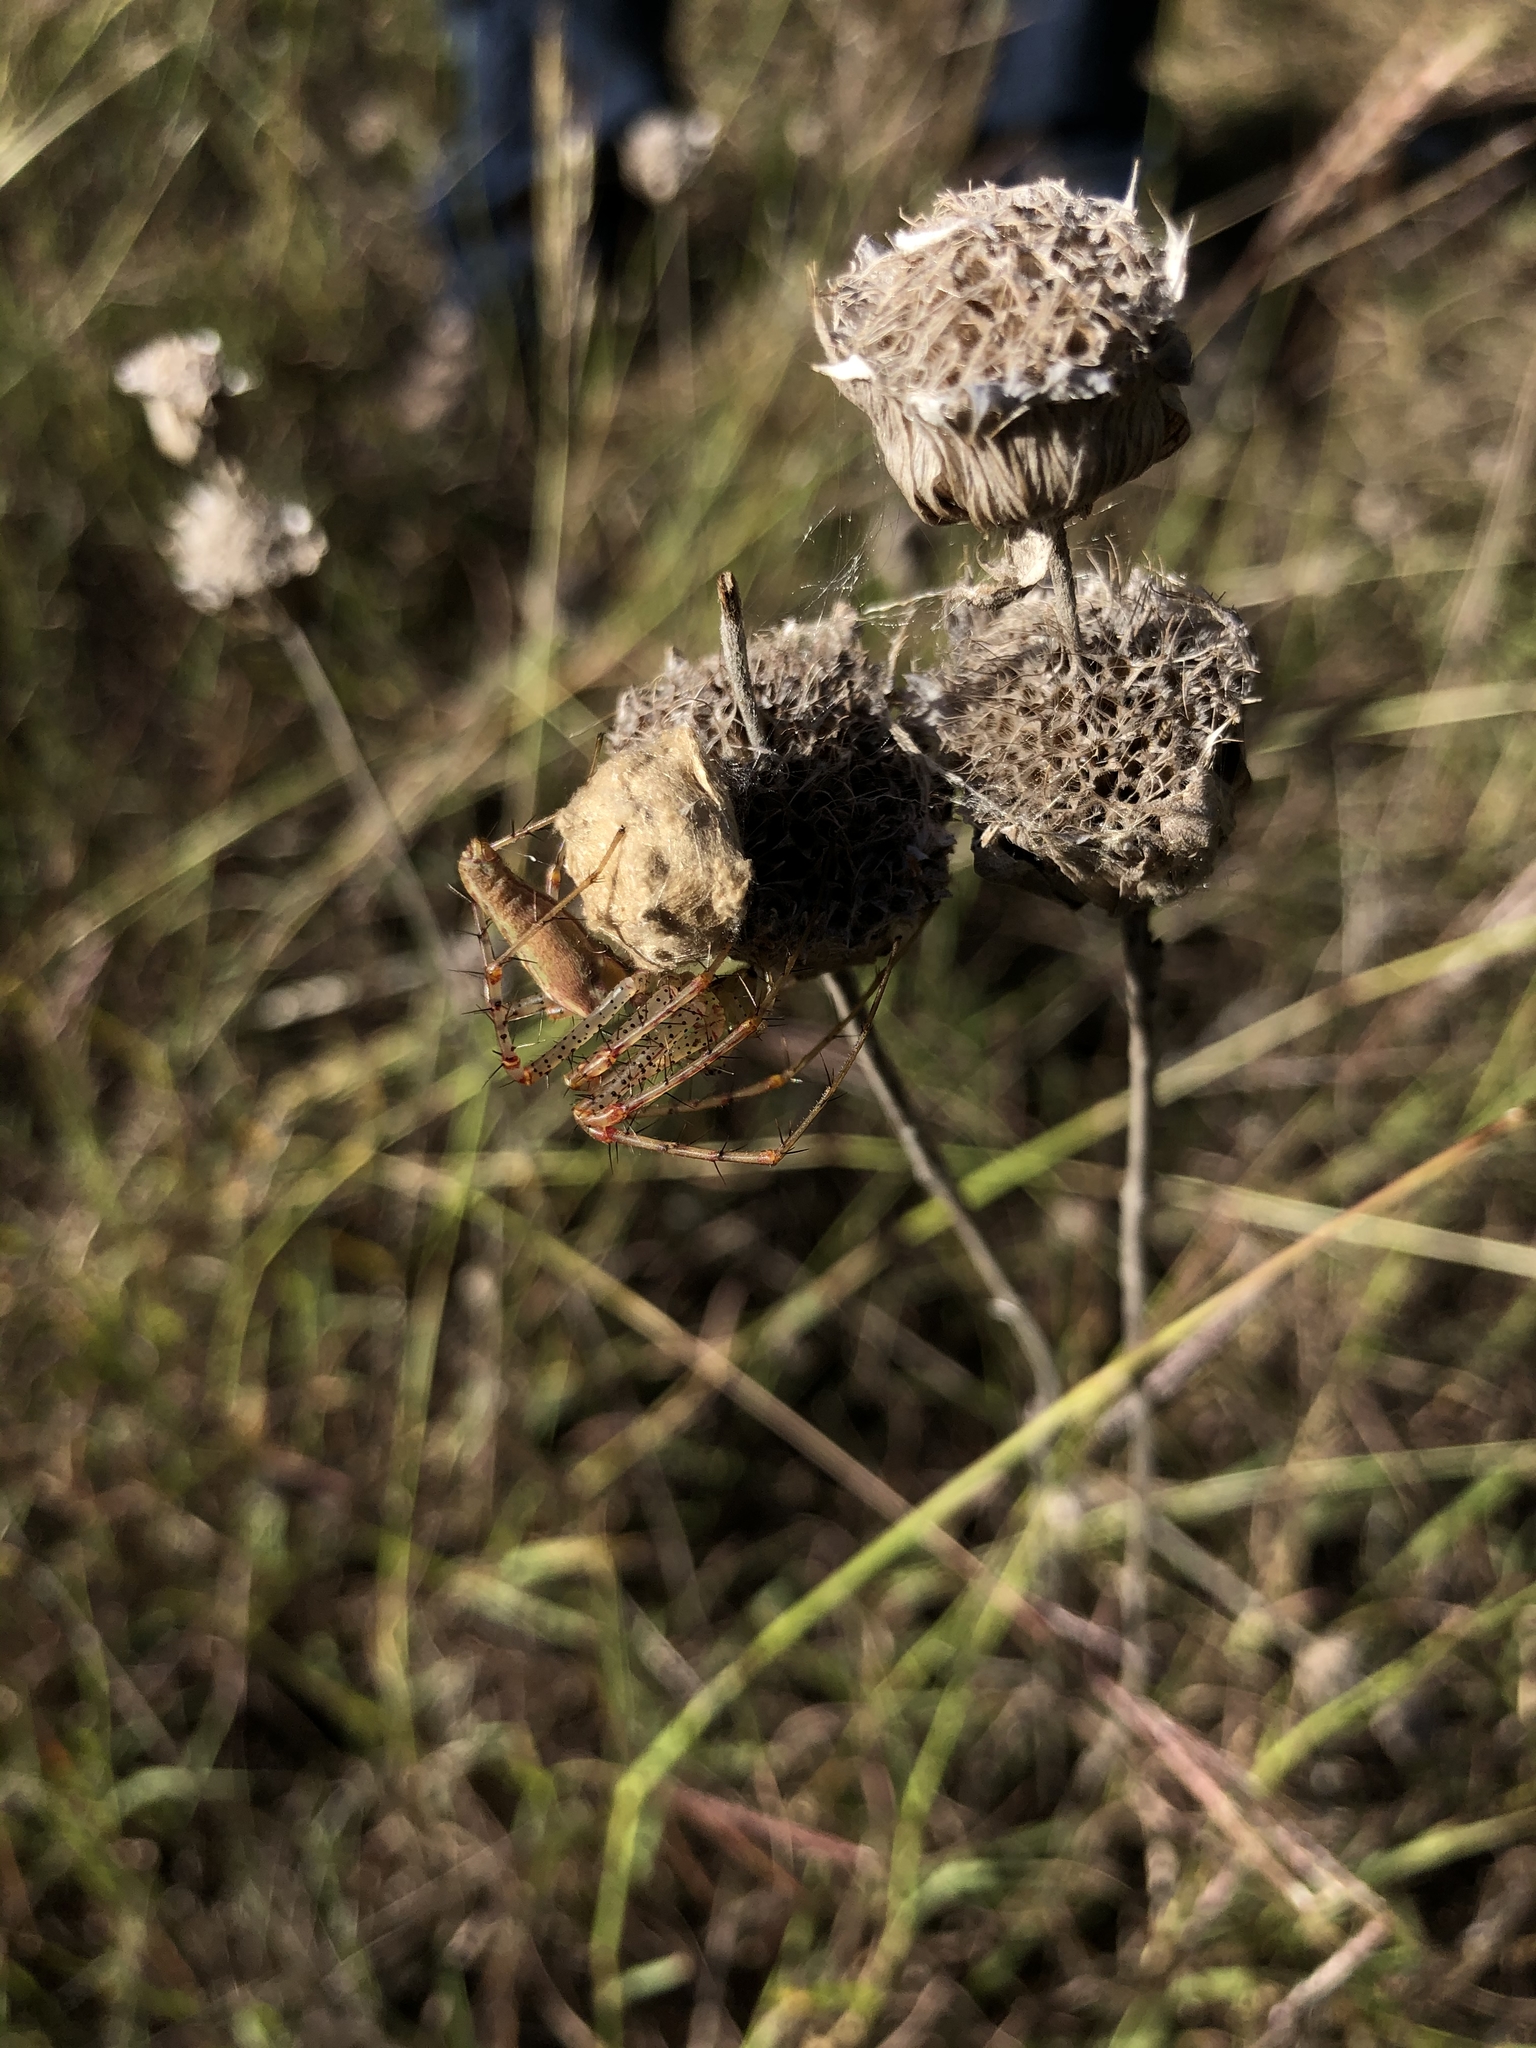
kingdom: Animalia
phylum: Arthropoda
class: Arachnida
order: Araneae
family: Oxyopidae
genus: Peucetia
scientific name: Peucetia viridans
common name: Lynx spiders
